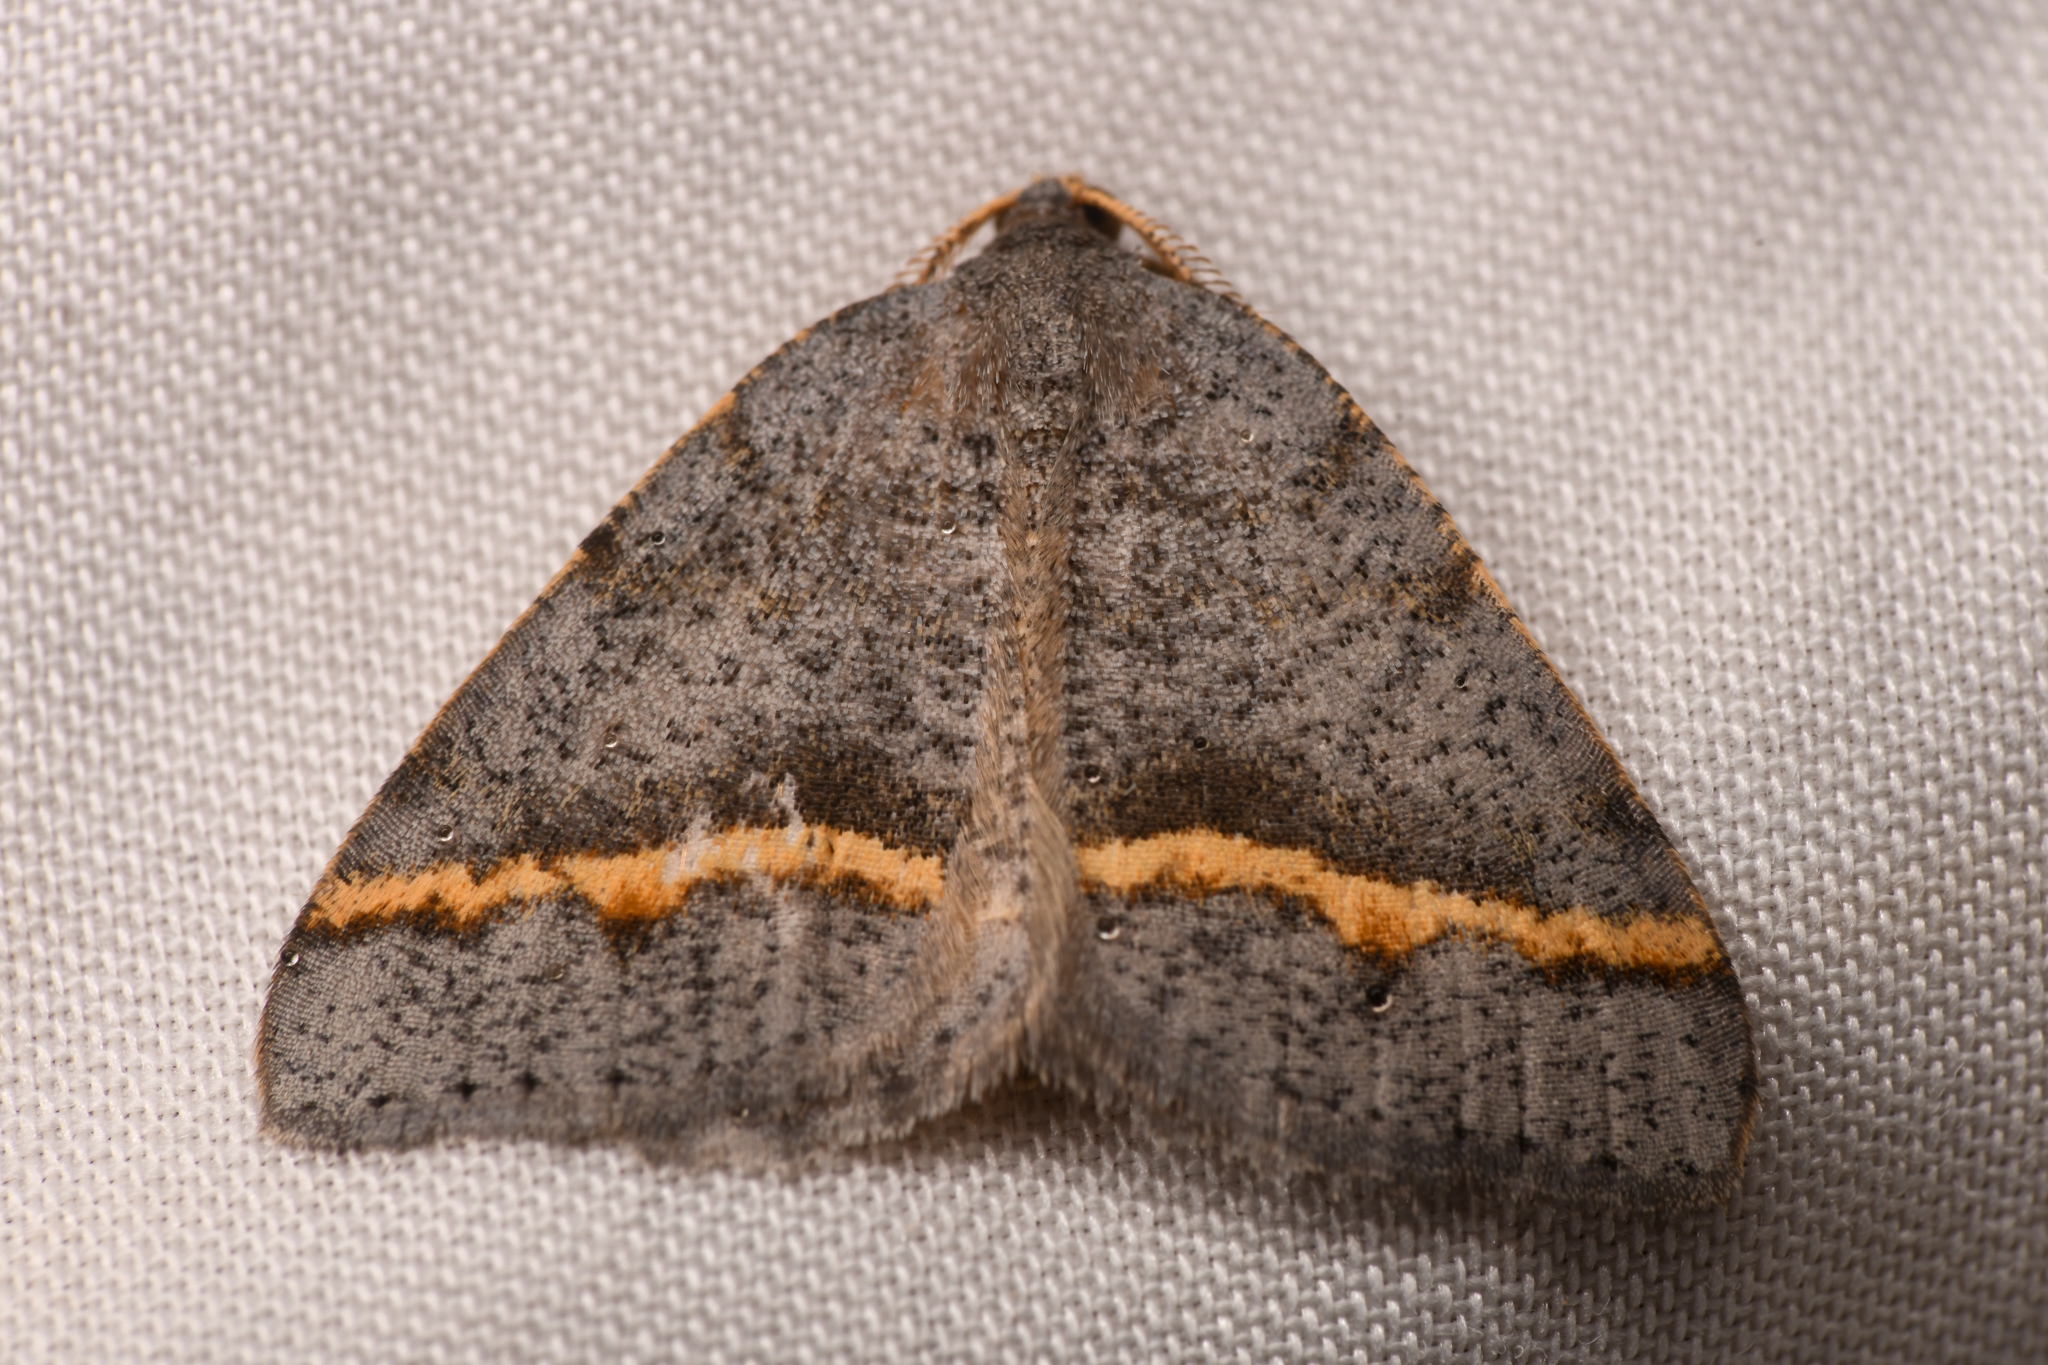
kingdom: Animalia
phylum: Arthropoda
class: Insecta
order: Lepidoptera
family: Geometridae
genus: Macaria
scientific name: Macaria austrinata
